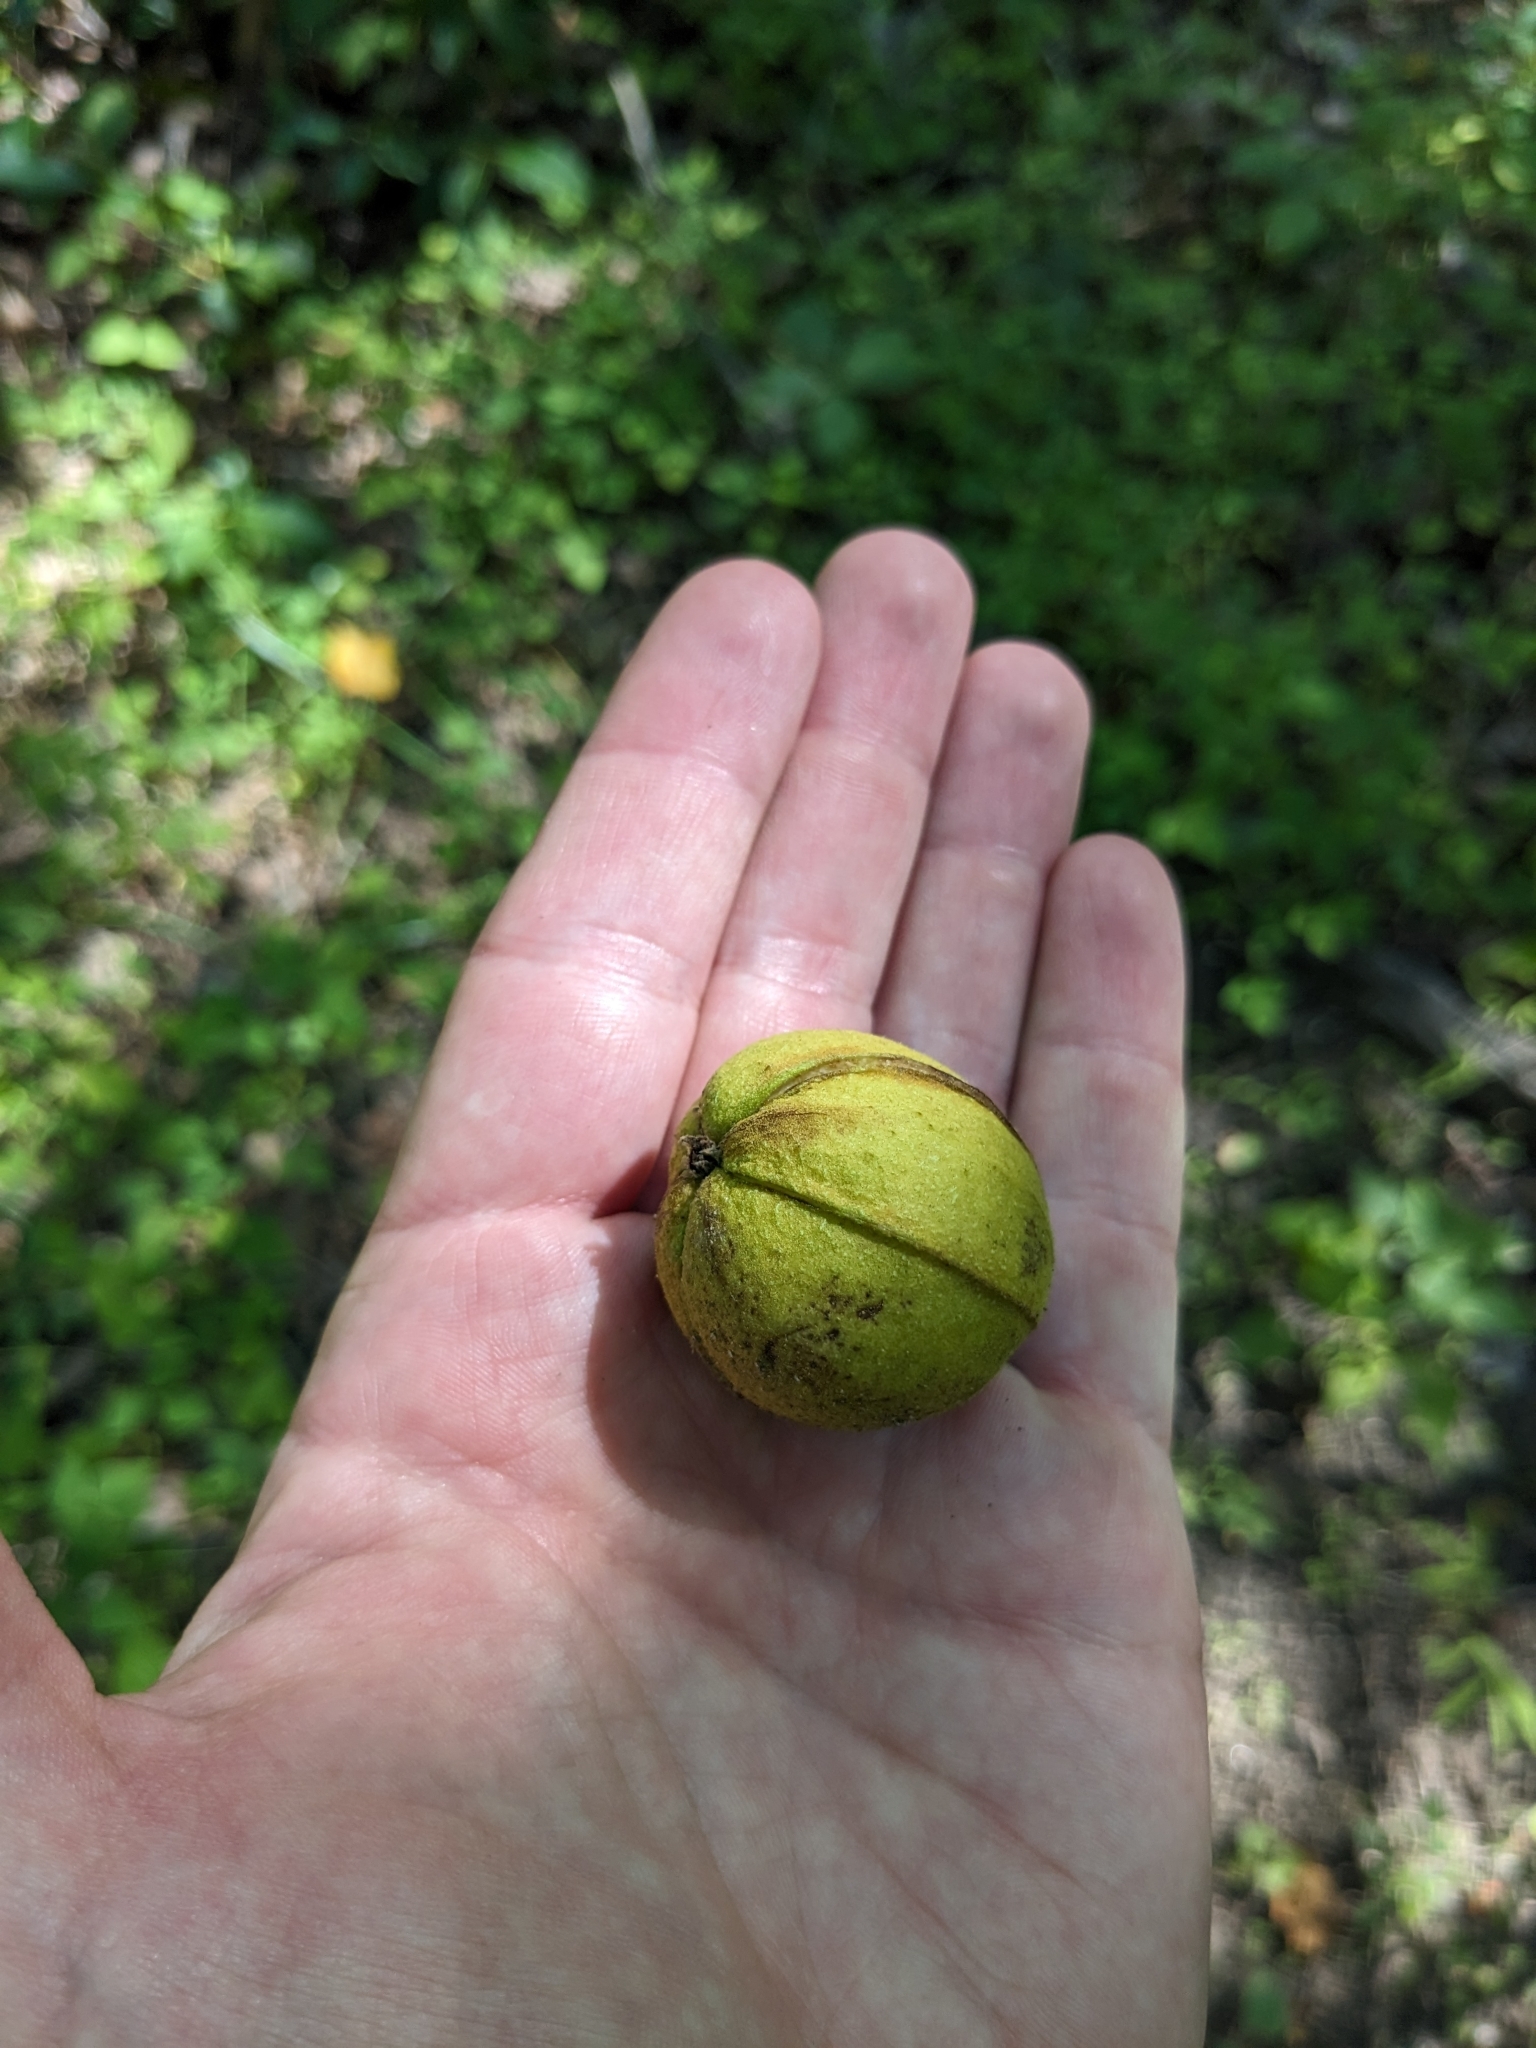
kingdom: Plantae
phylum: Tracheophyta
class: Magnoliopsida
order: Fagales
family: Juglandaceae
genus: Carya
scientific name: Carya alba
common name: Mockernut hickory
